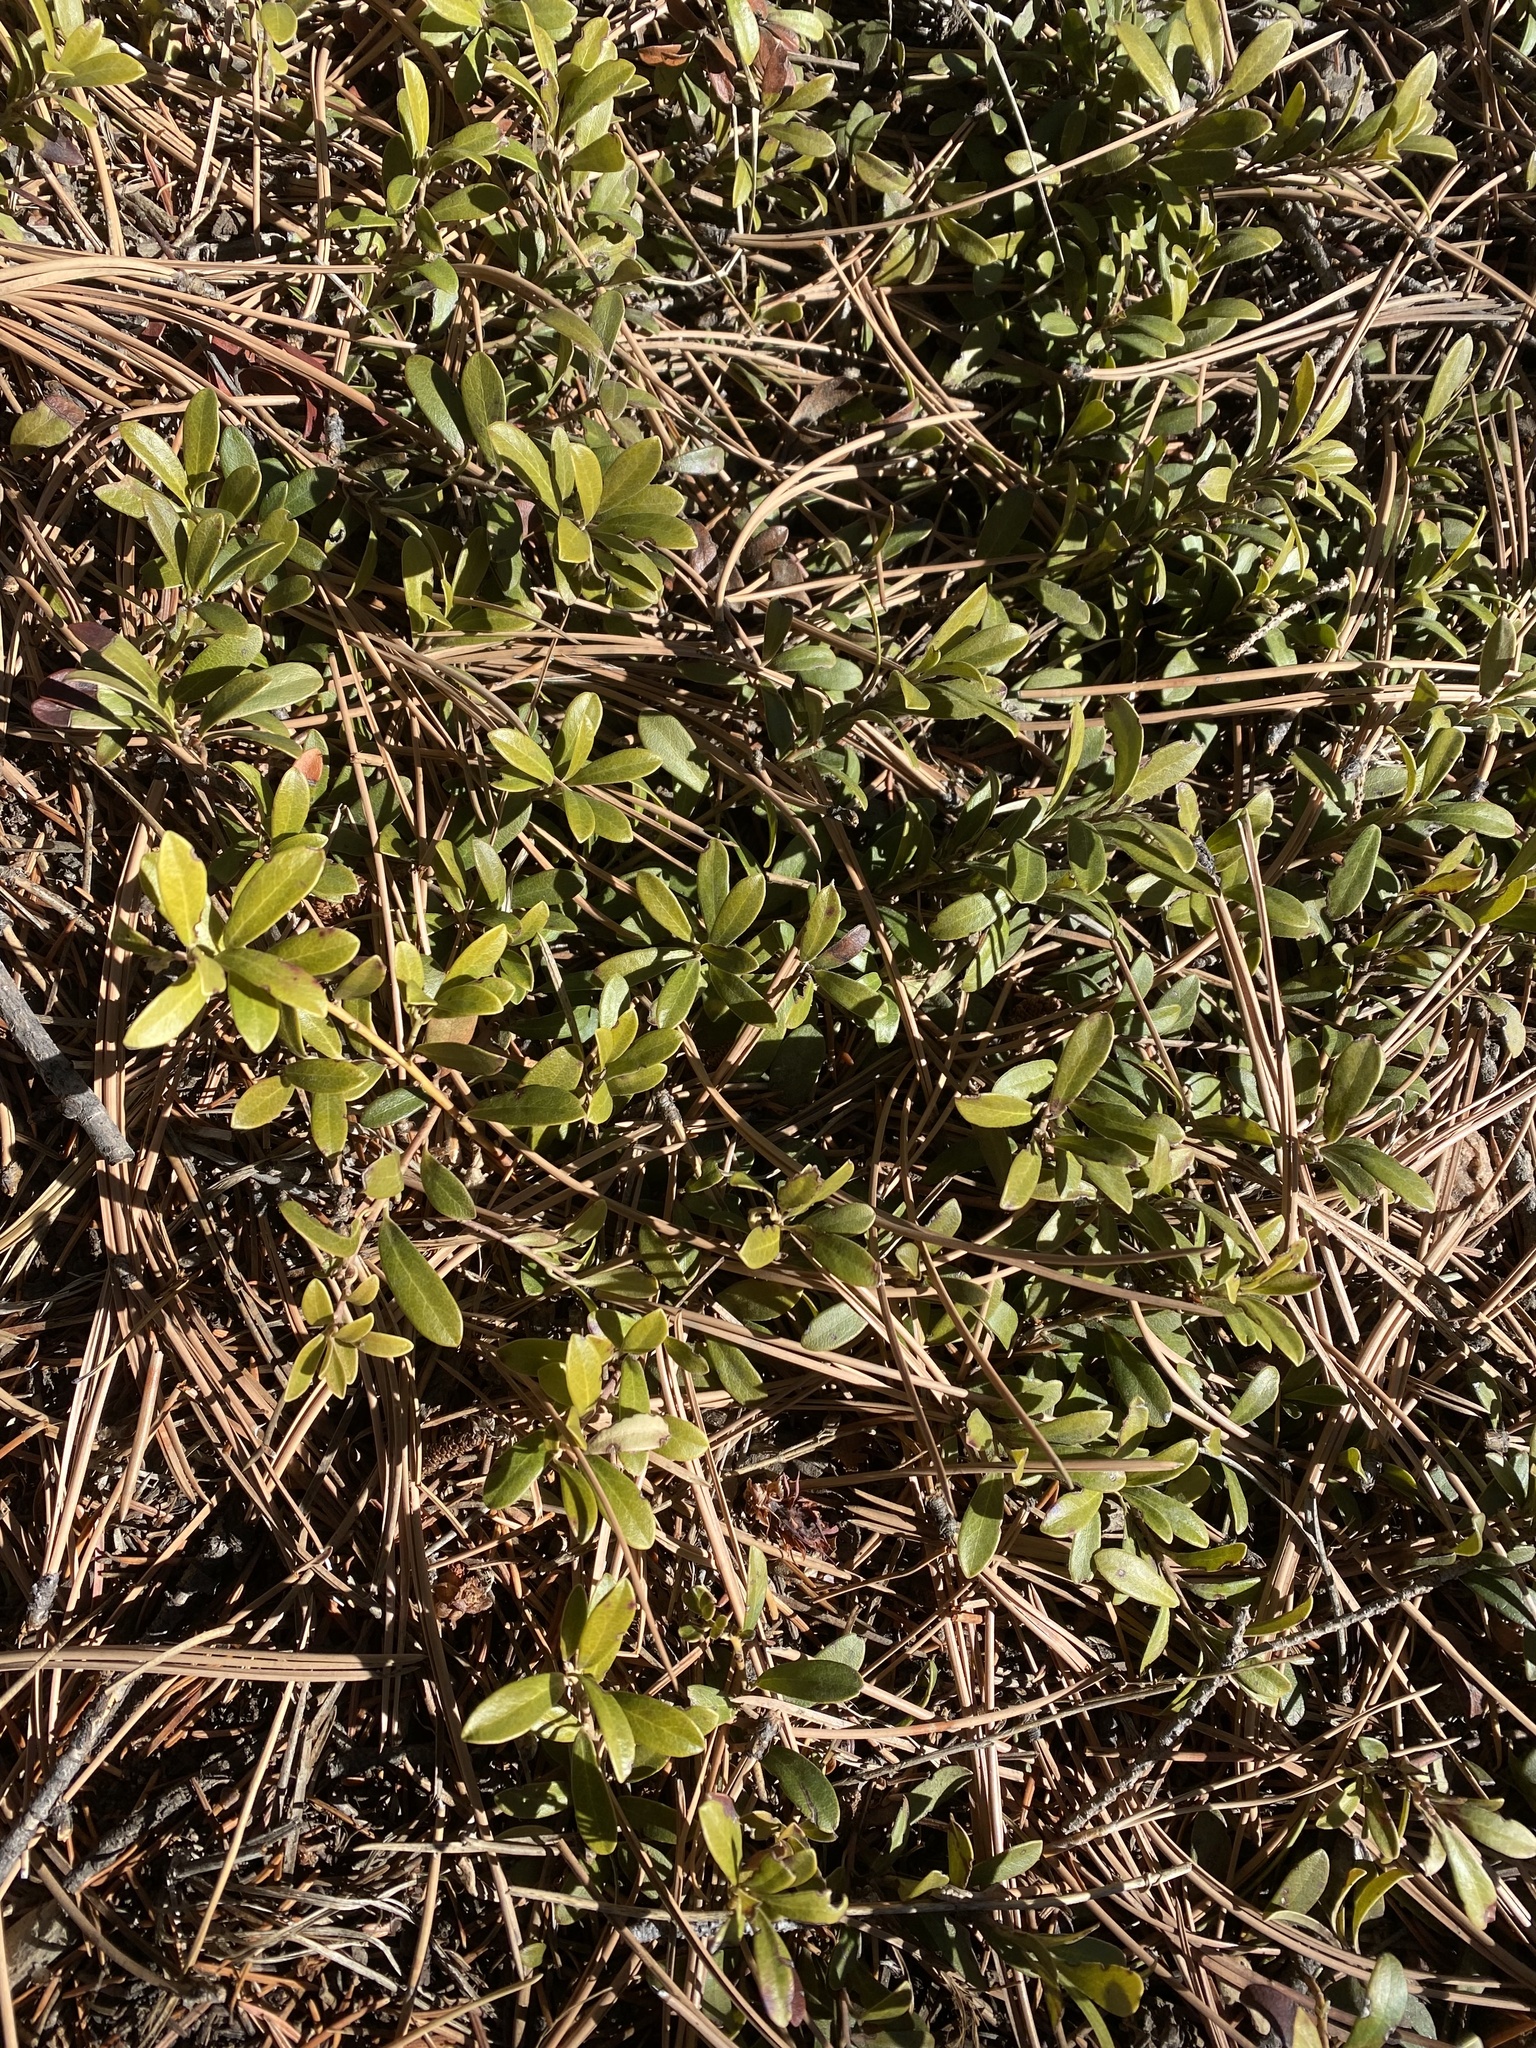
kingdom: Plantae
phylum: Tracheophyta
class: Magnoliopsida
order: Ericales
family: Ericaceae
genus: Arctostaphylos
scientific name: Arctostaphylos uva-ursi
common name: Bearberry
